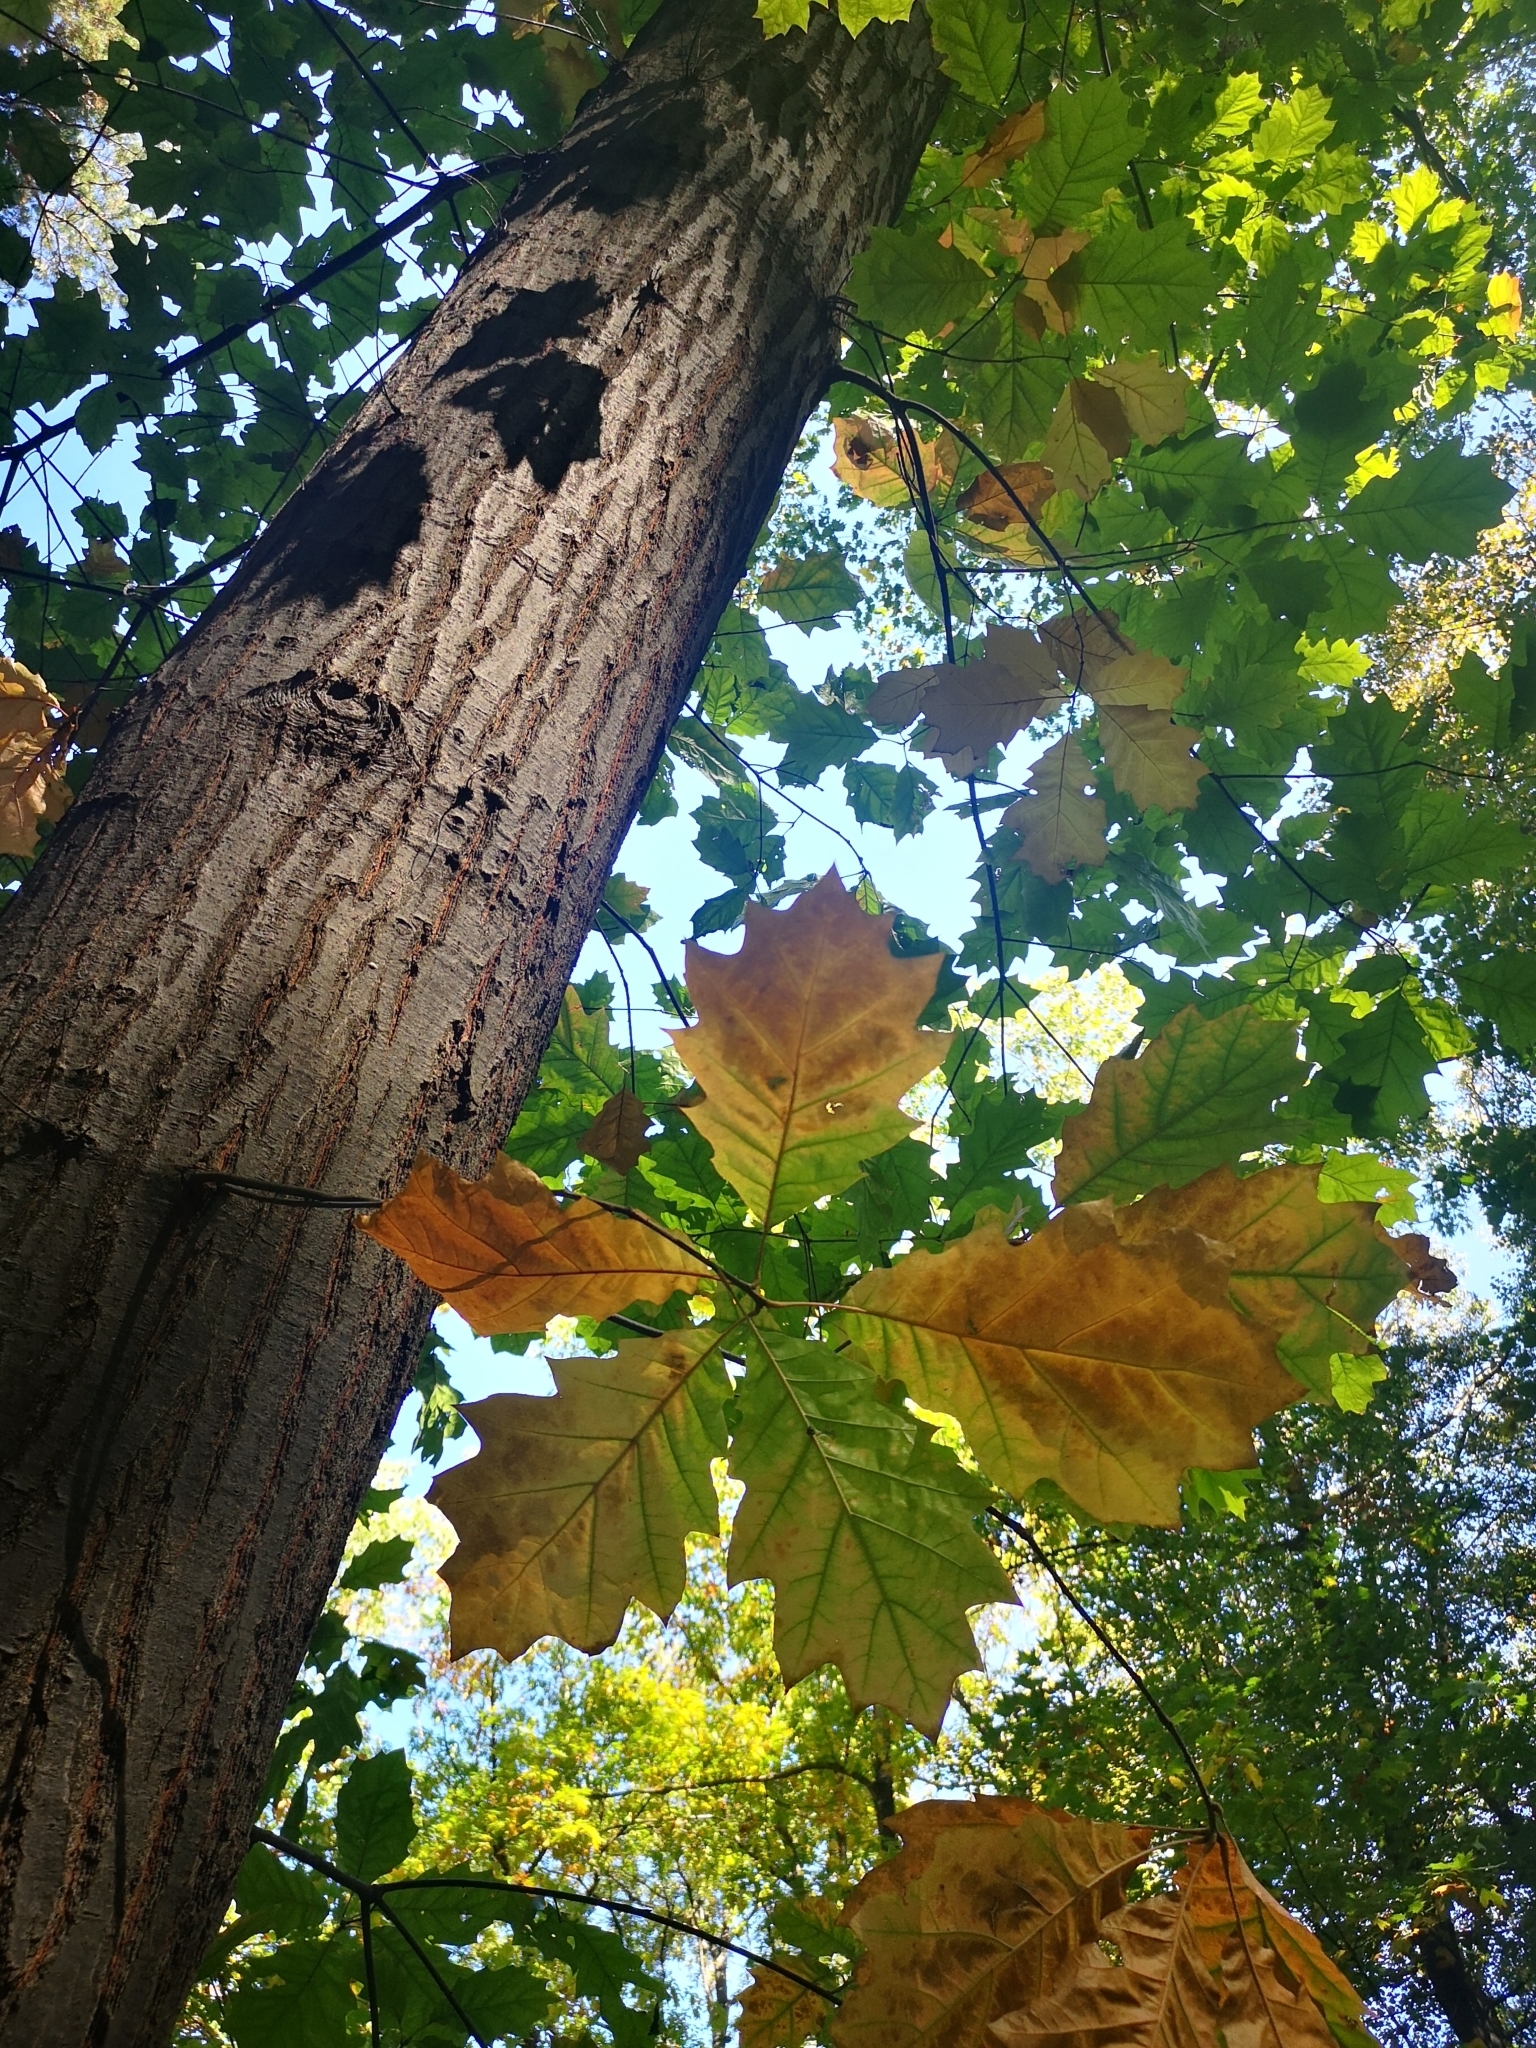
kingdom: Plantae
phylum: Tracheophyta
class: Magnoliopsida
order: Fagales
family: Fagaceae
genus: Quercus
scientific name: Quercus rubra
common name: Red oak
